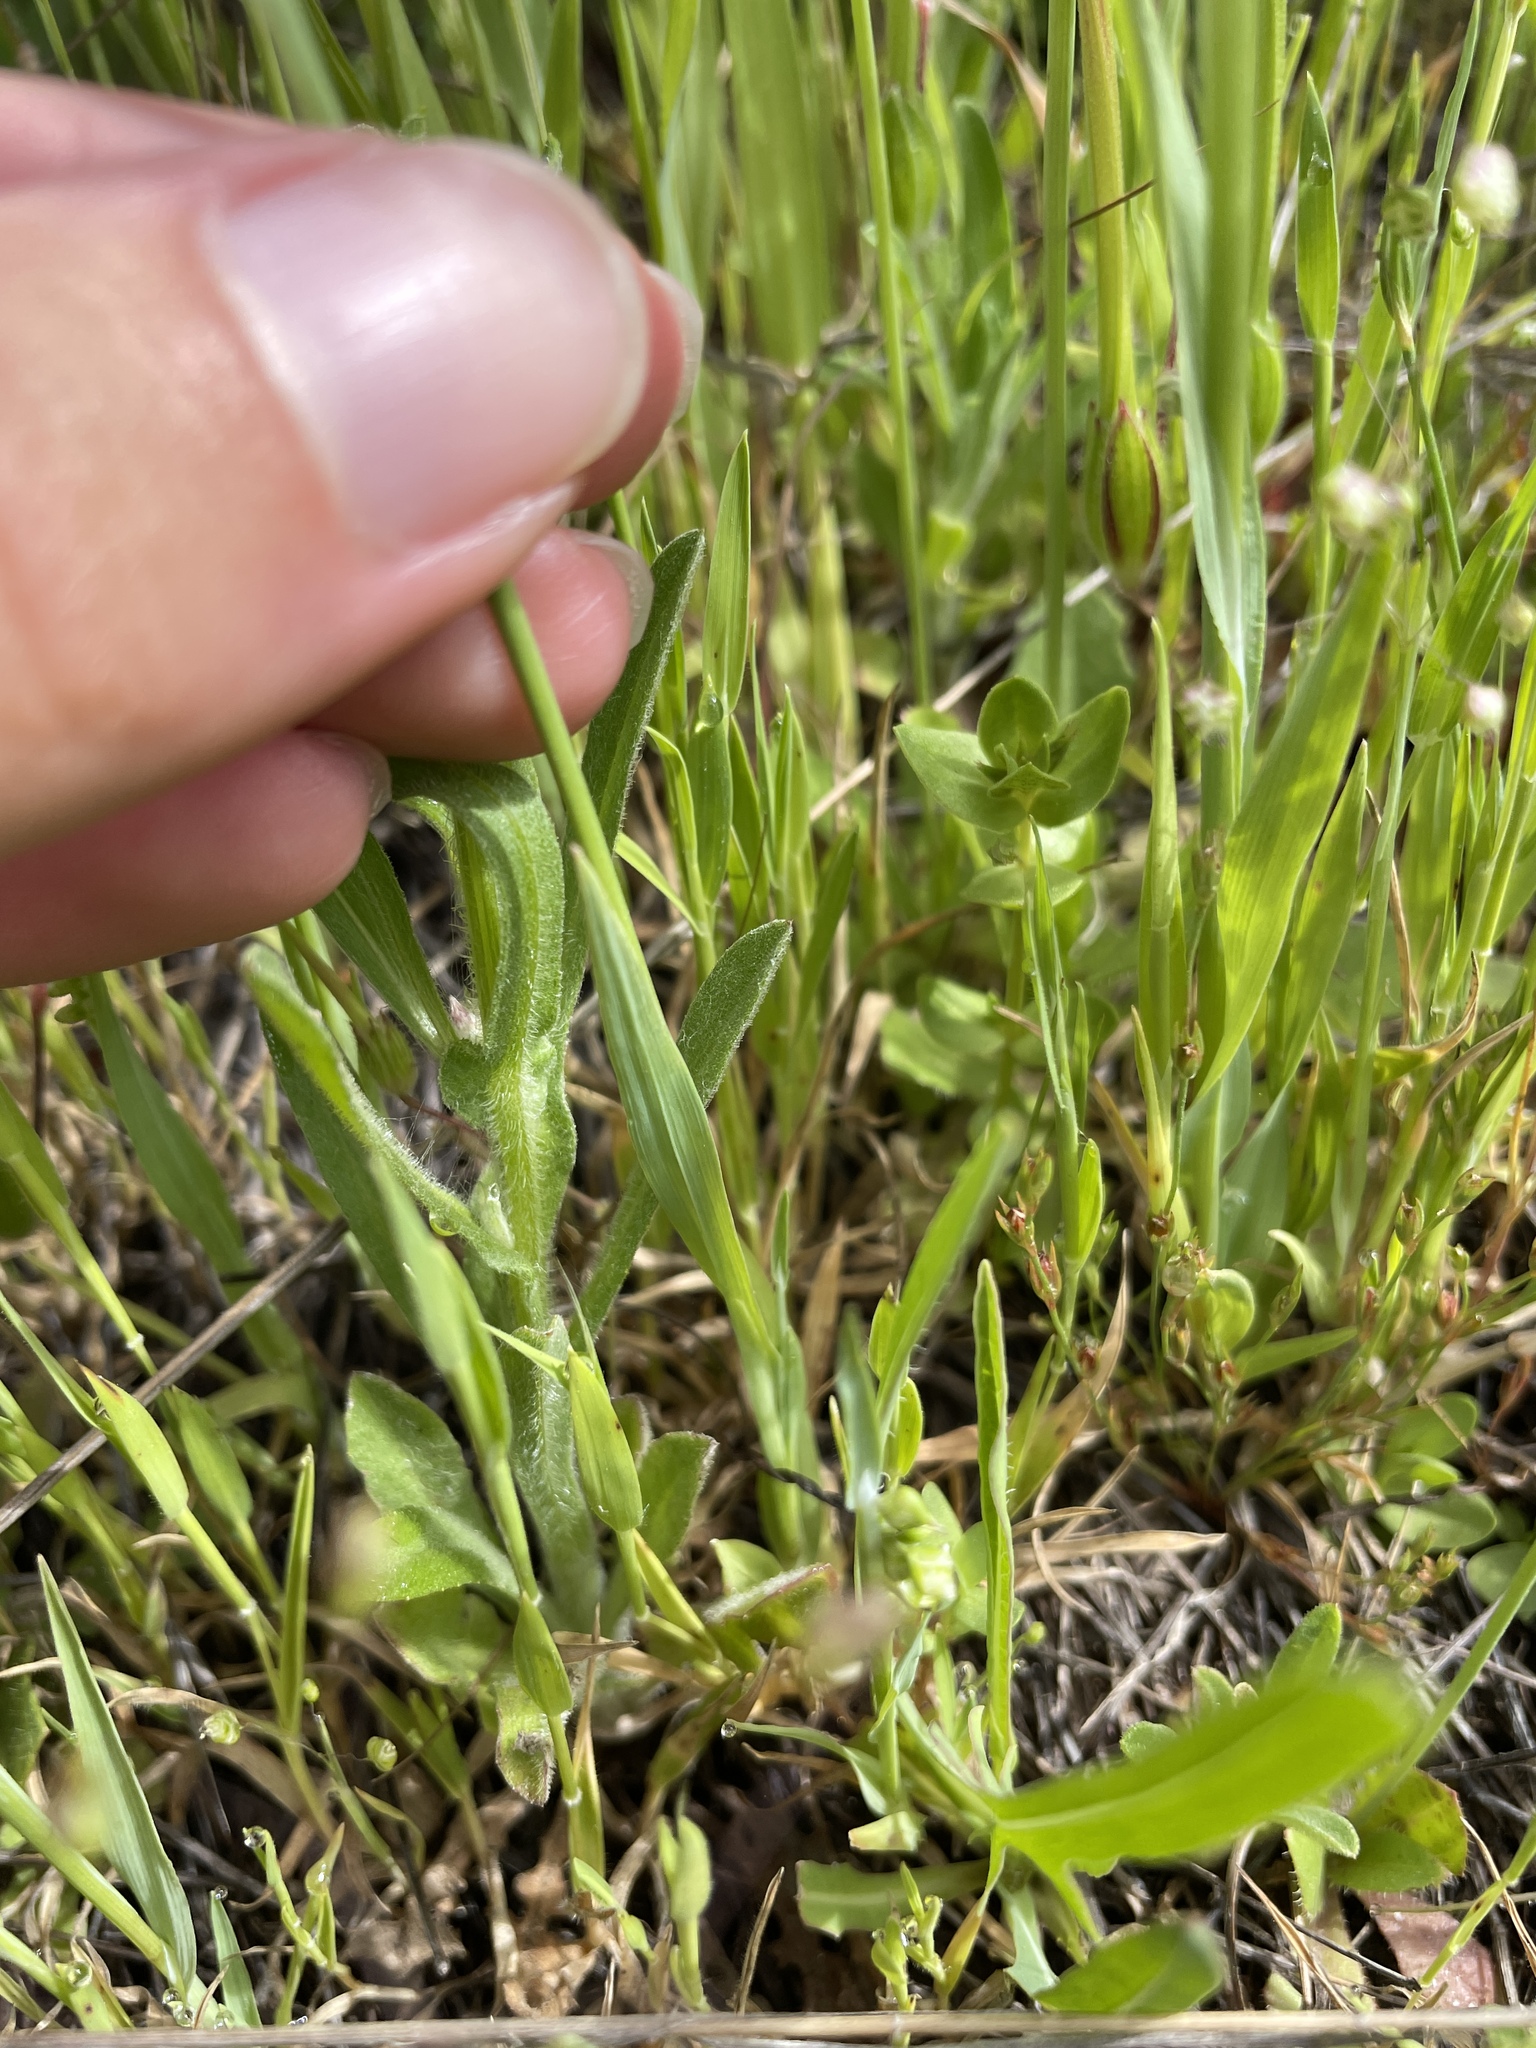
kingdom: Plantae
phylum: Tracheophyta
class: Liliopsida
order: Poales
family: Poaceae
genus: Briza
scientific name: Briza minor
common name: Lesser quaking-grass
